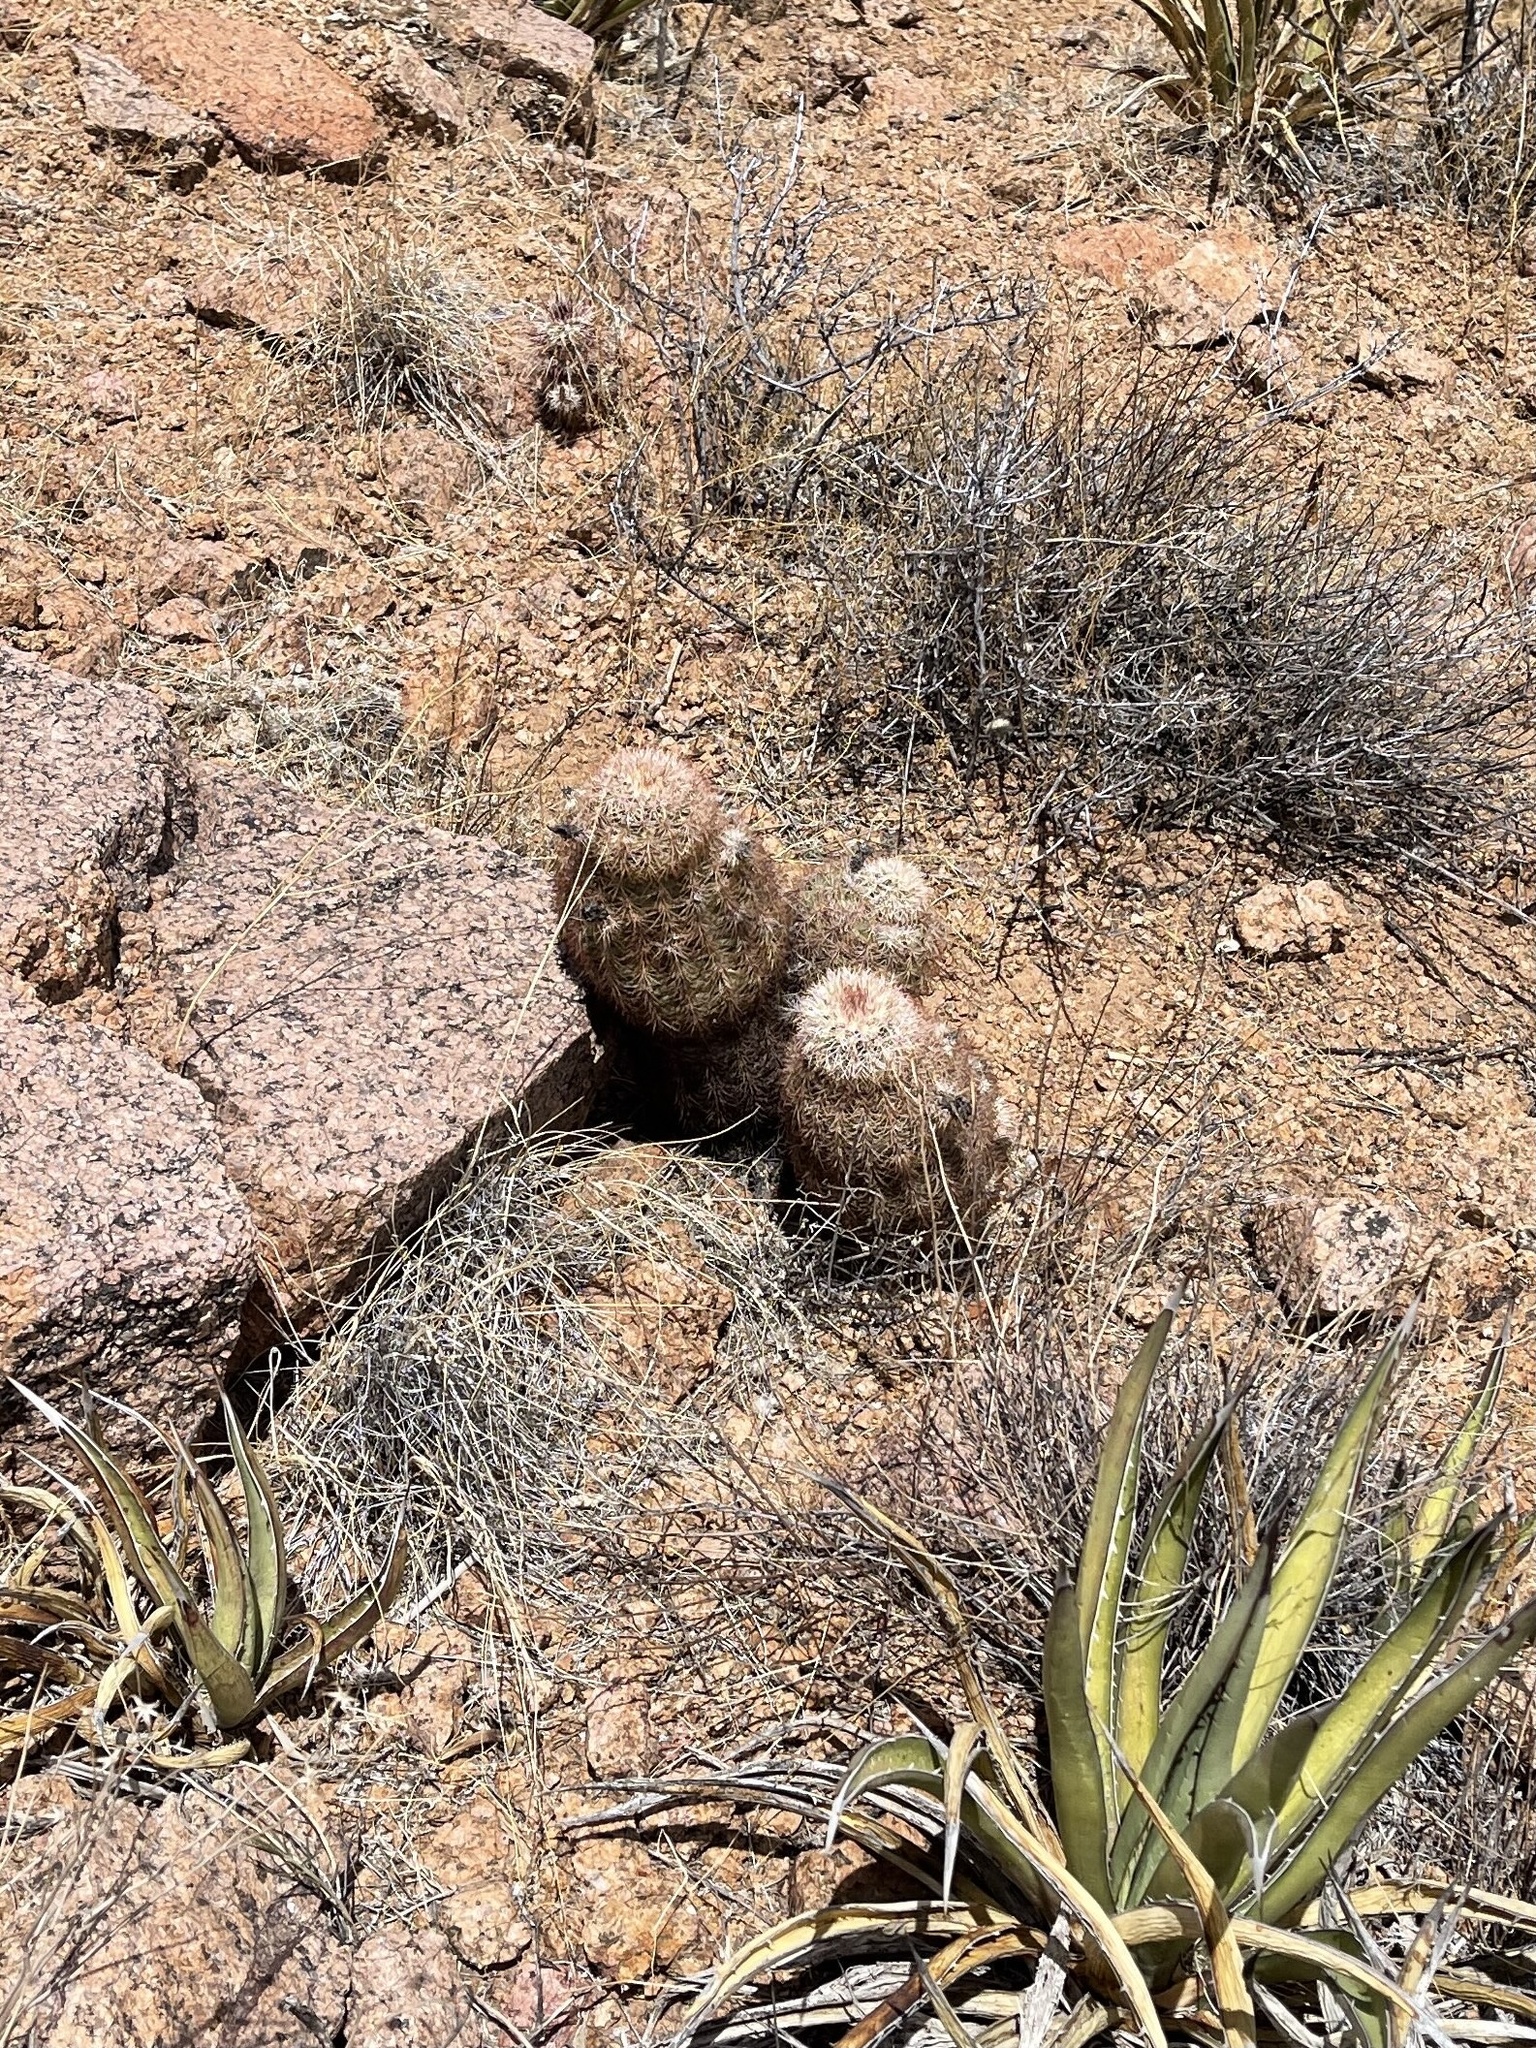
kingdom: Plantae
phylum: Tracheophyta
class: Magnoliopsida
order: Caryophyllales
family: Cactaceae
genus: Echinocereus
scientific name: Echinocereus dasyacanthus
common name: Spiny hedgehog cactus
